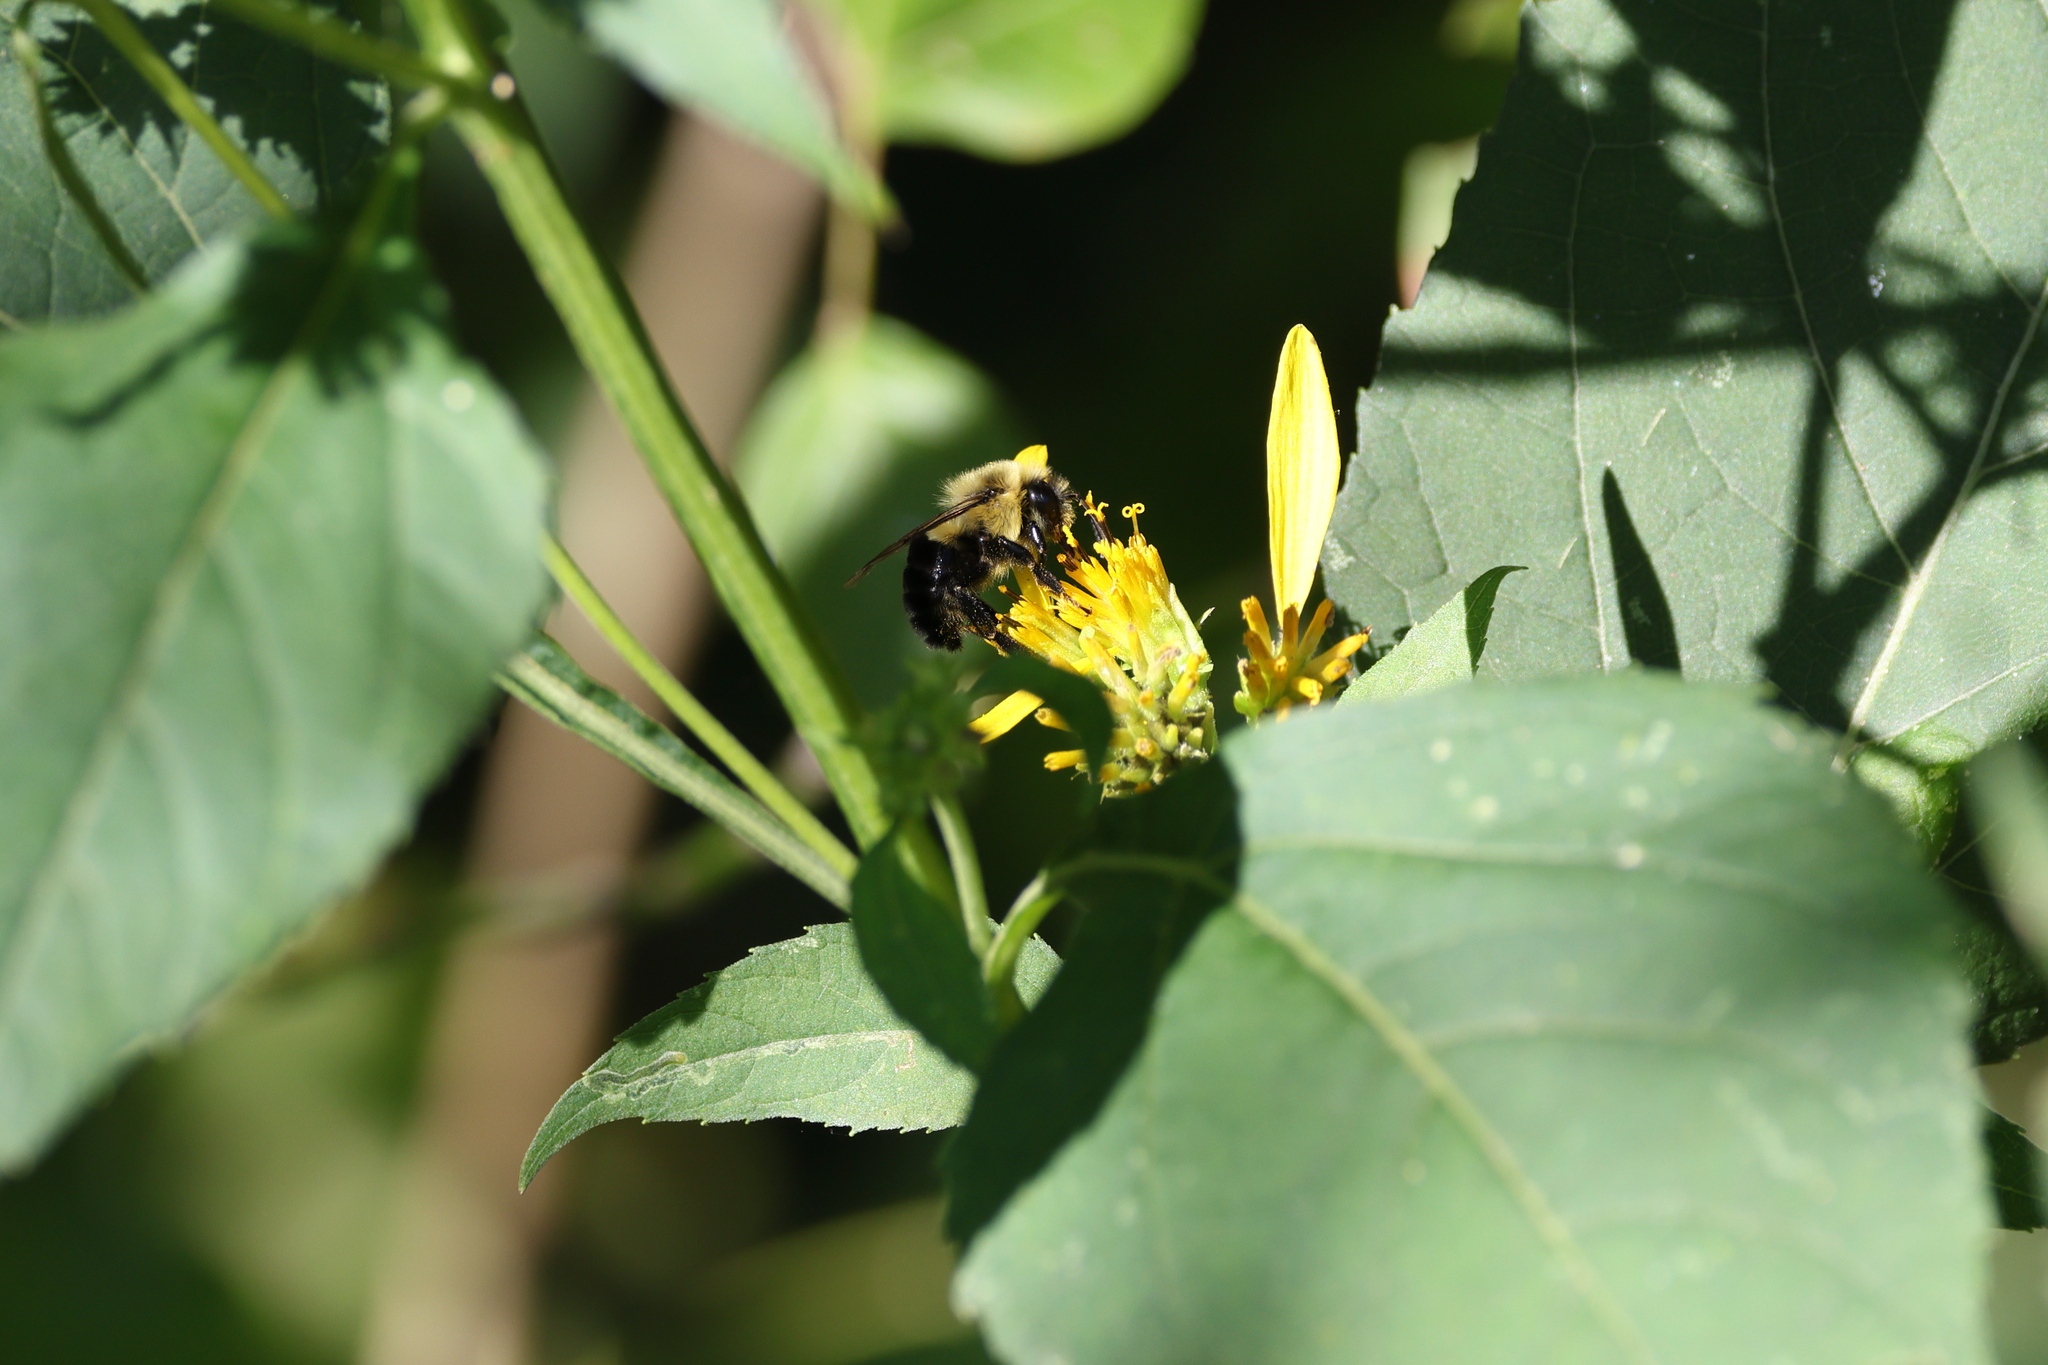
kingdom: Animalia
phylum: Arthropoda
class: Insecta
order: Hymenoptera
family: Apidae
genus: Bombus
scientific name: Bombus impatiens
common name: Common eastern bumble bee
